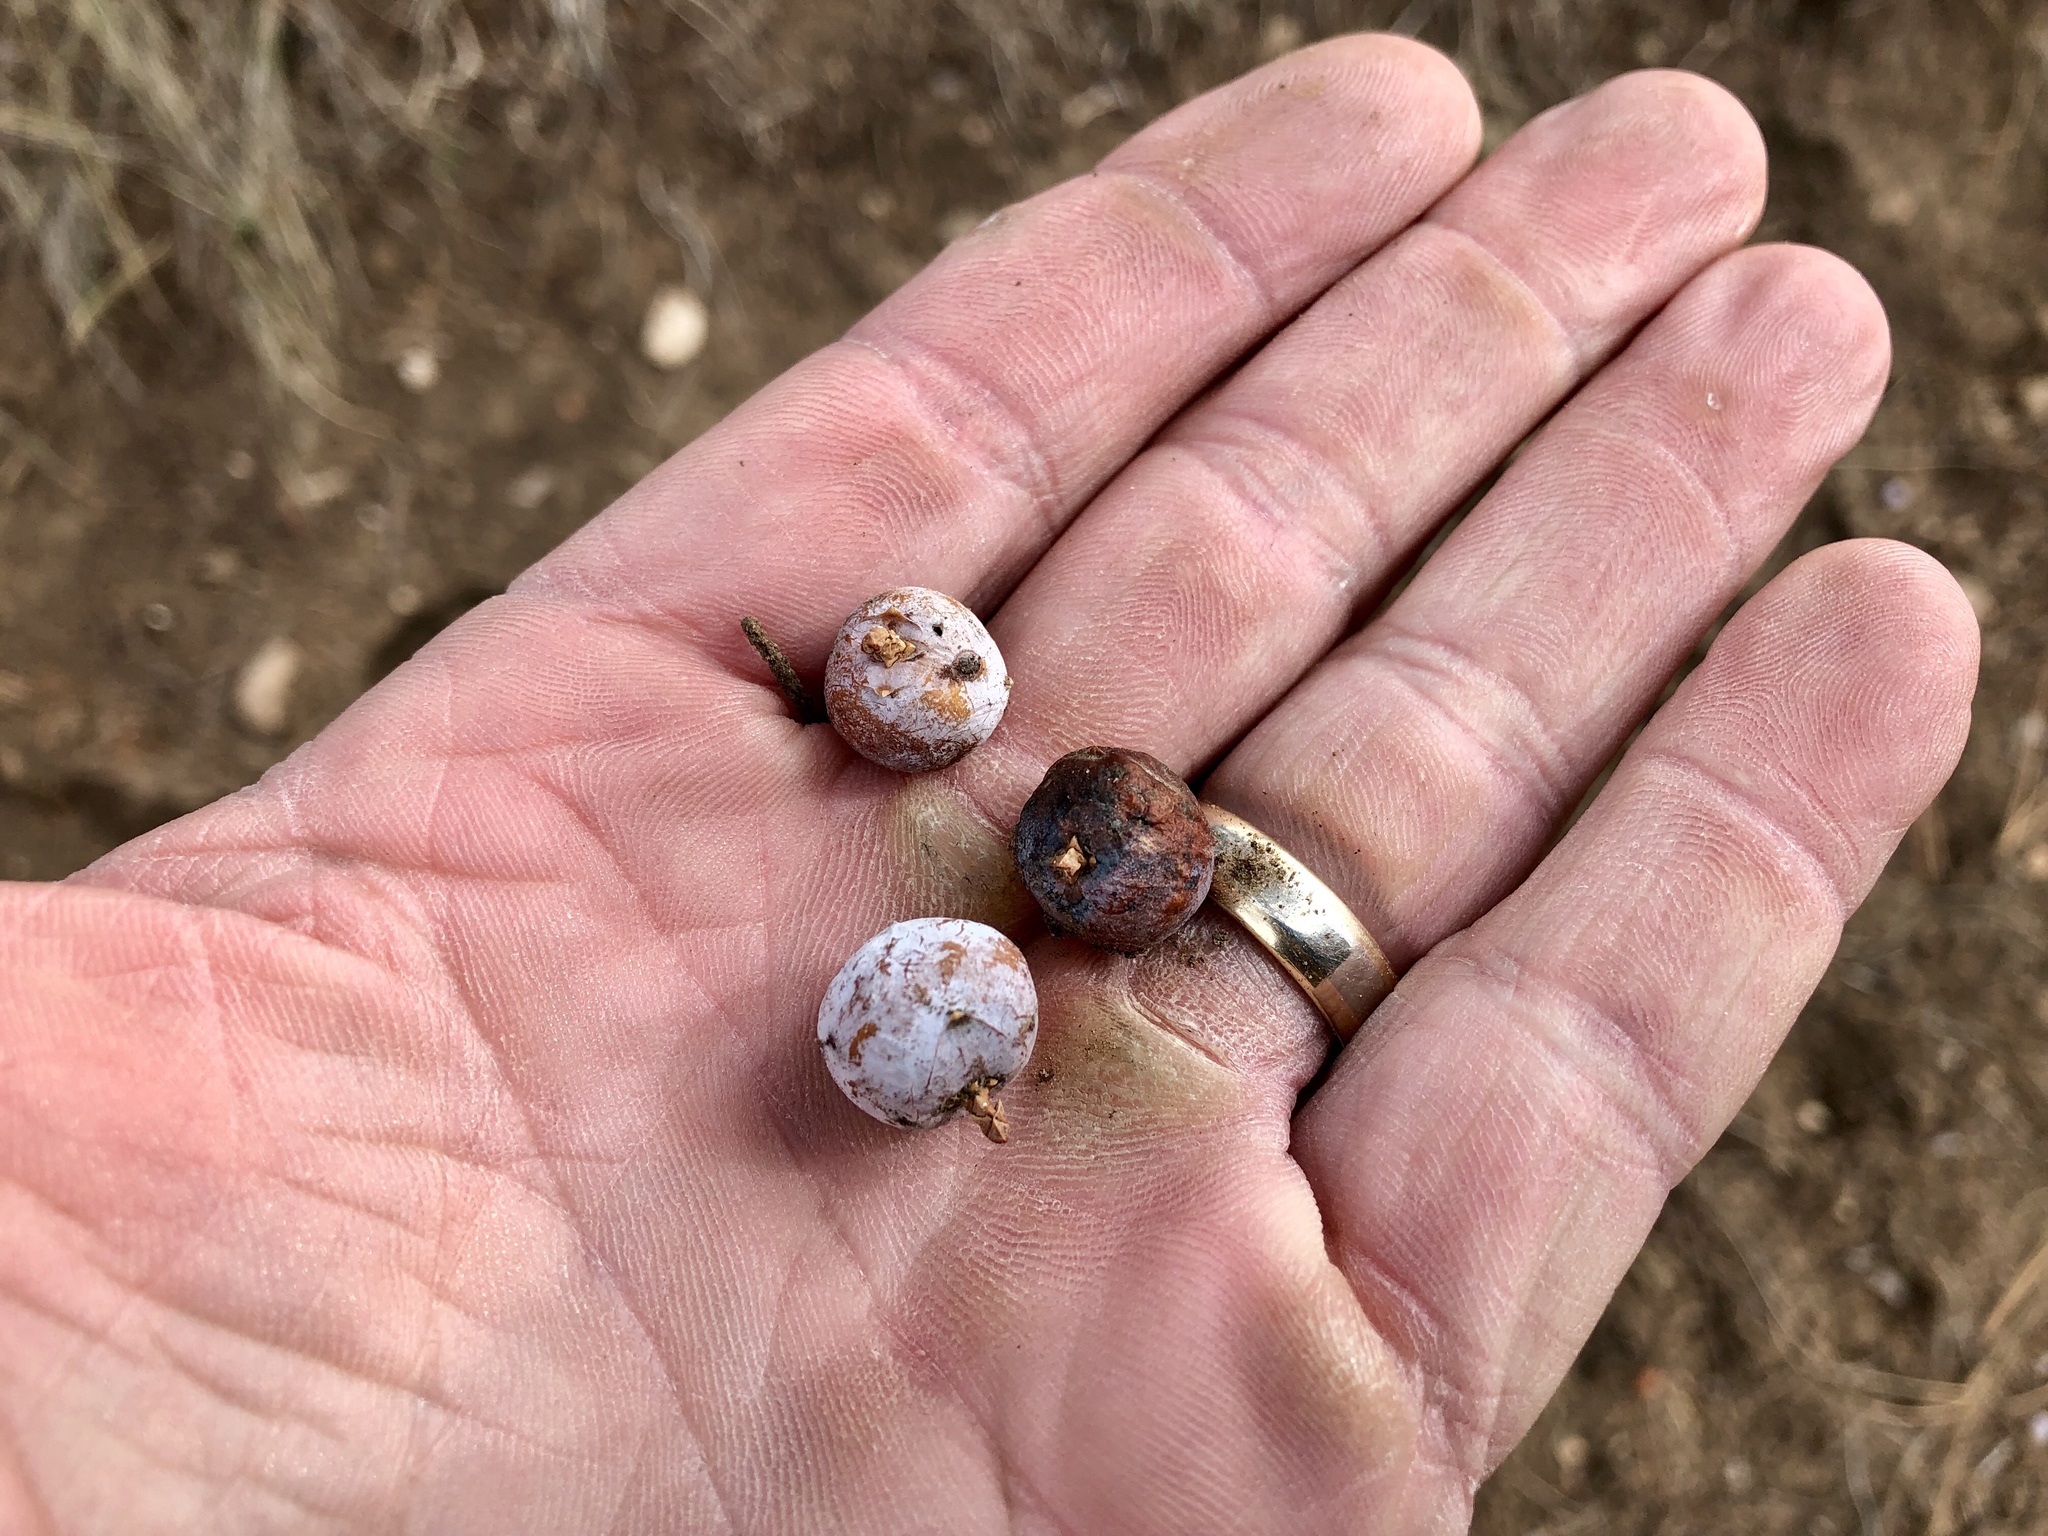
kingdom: Plantae
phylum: Tracheophyta
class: Pinopsida
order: Pinales
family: Cupressaceae
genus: Juniperus
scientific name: Juniperus deppeana
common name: Alligator juniper
